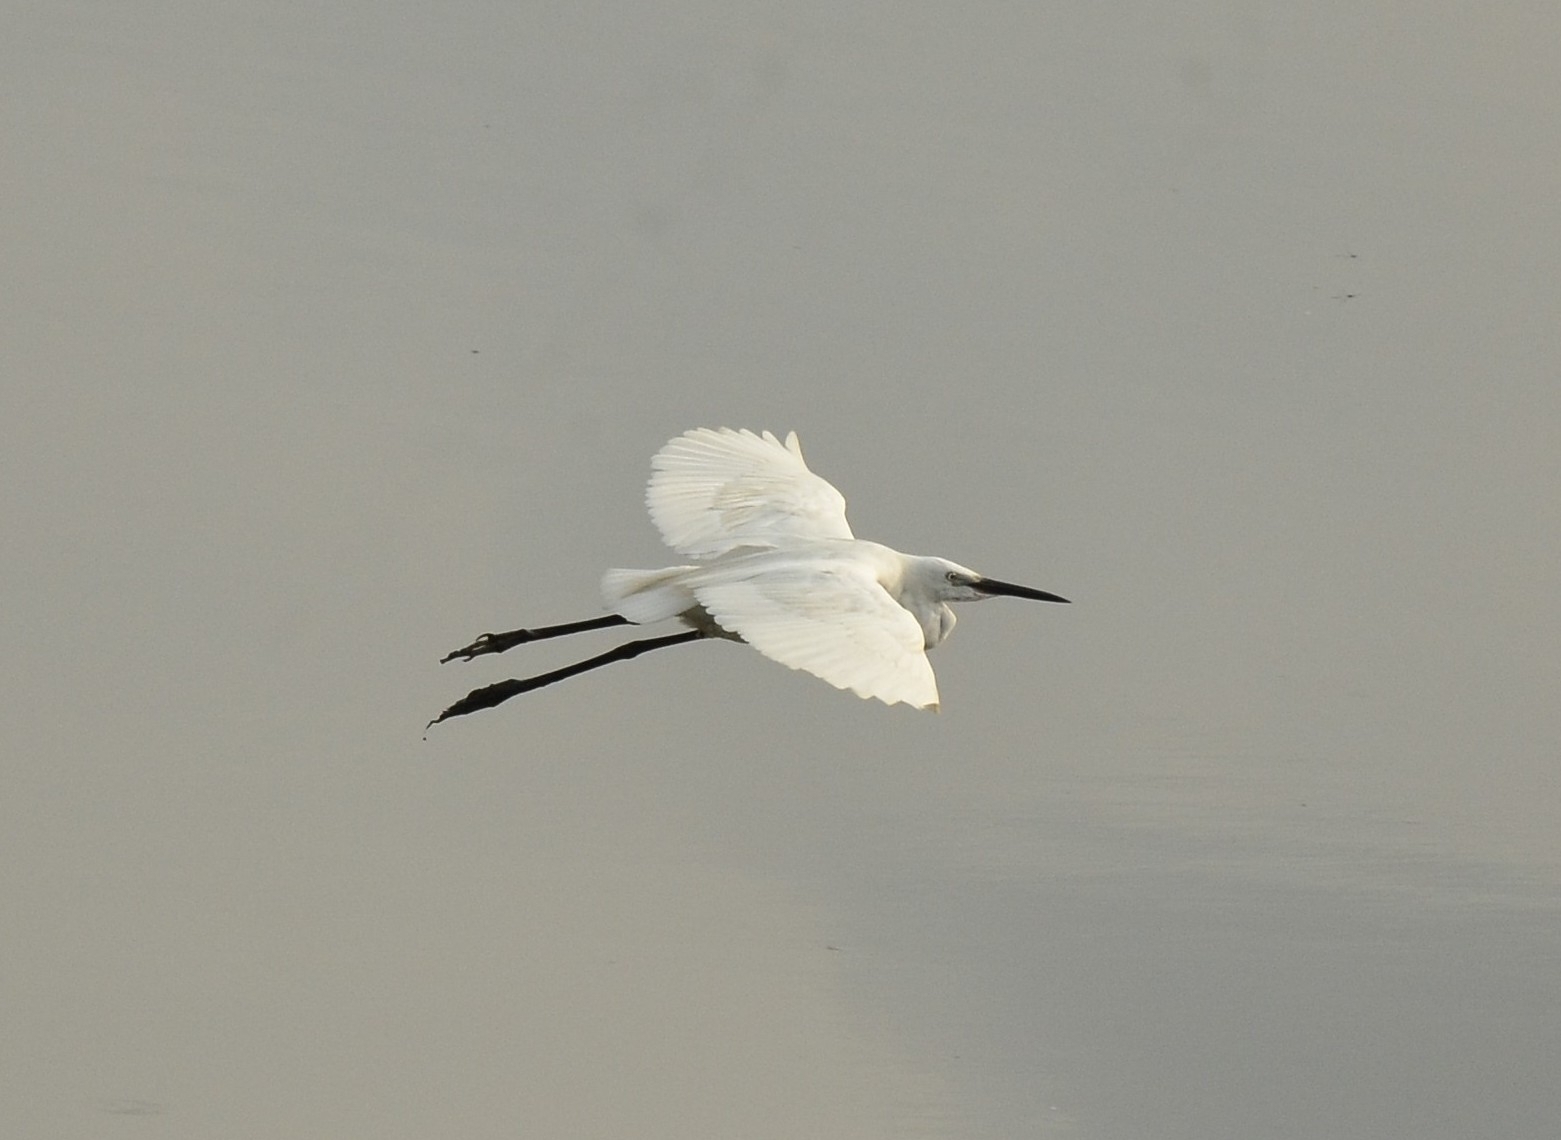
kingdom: Animalia
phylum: Chordata
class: Aves
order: Pelecaniformes
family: Ardeidae
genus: Egretta
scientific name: Egretta garzetta
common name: Little egret
